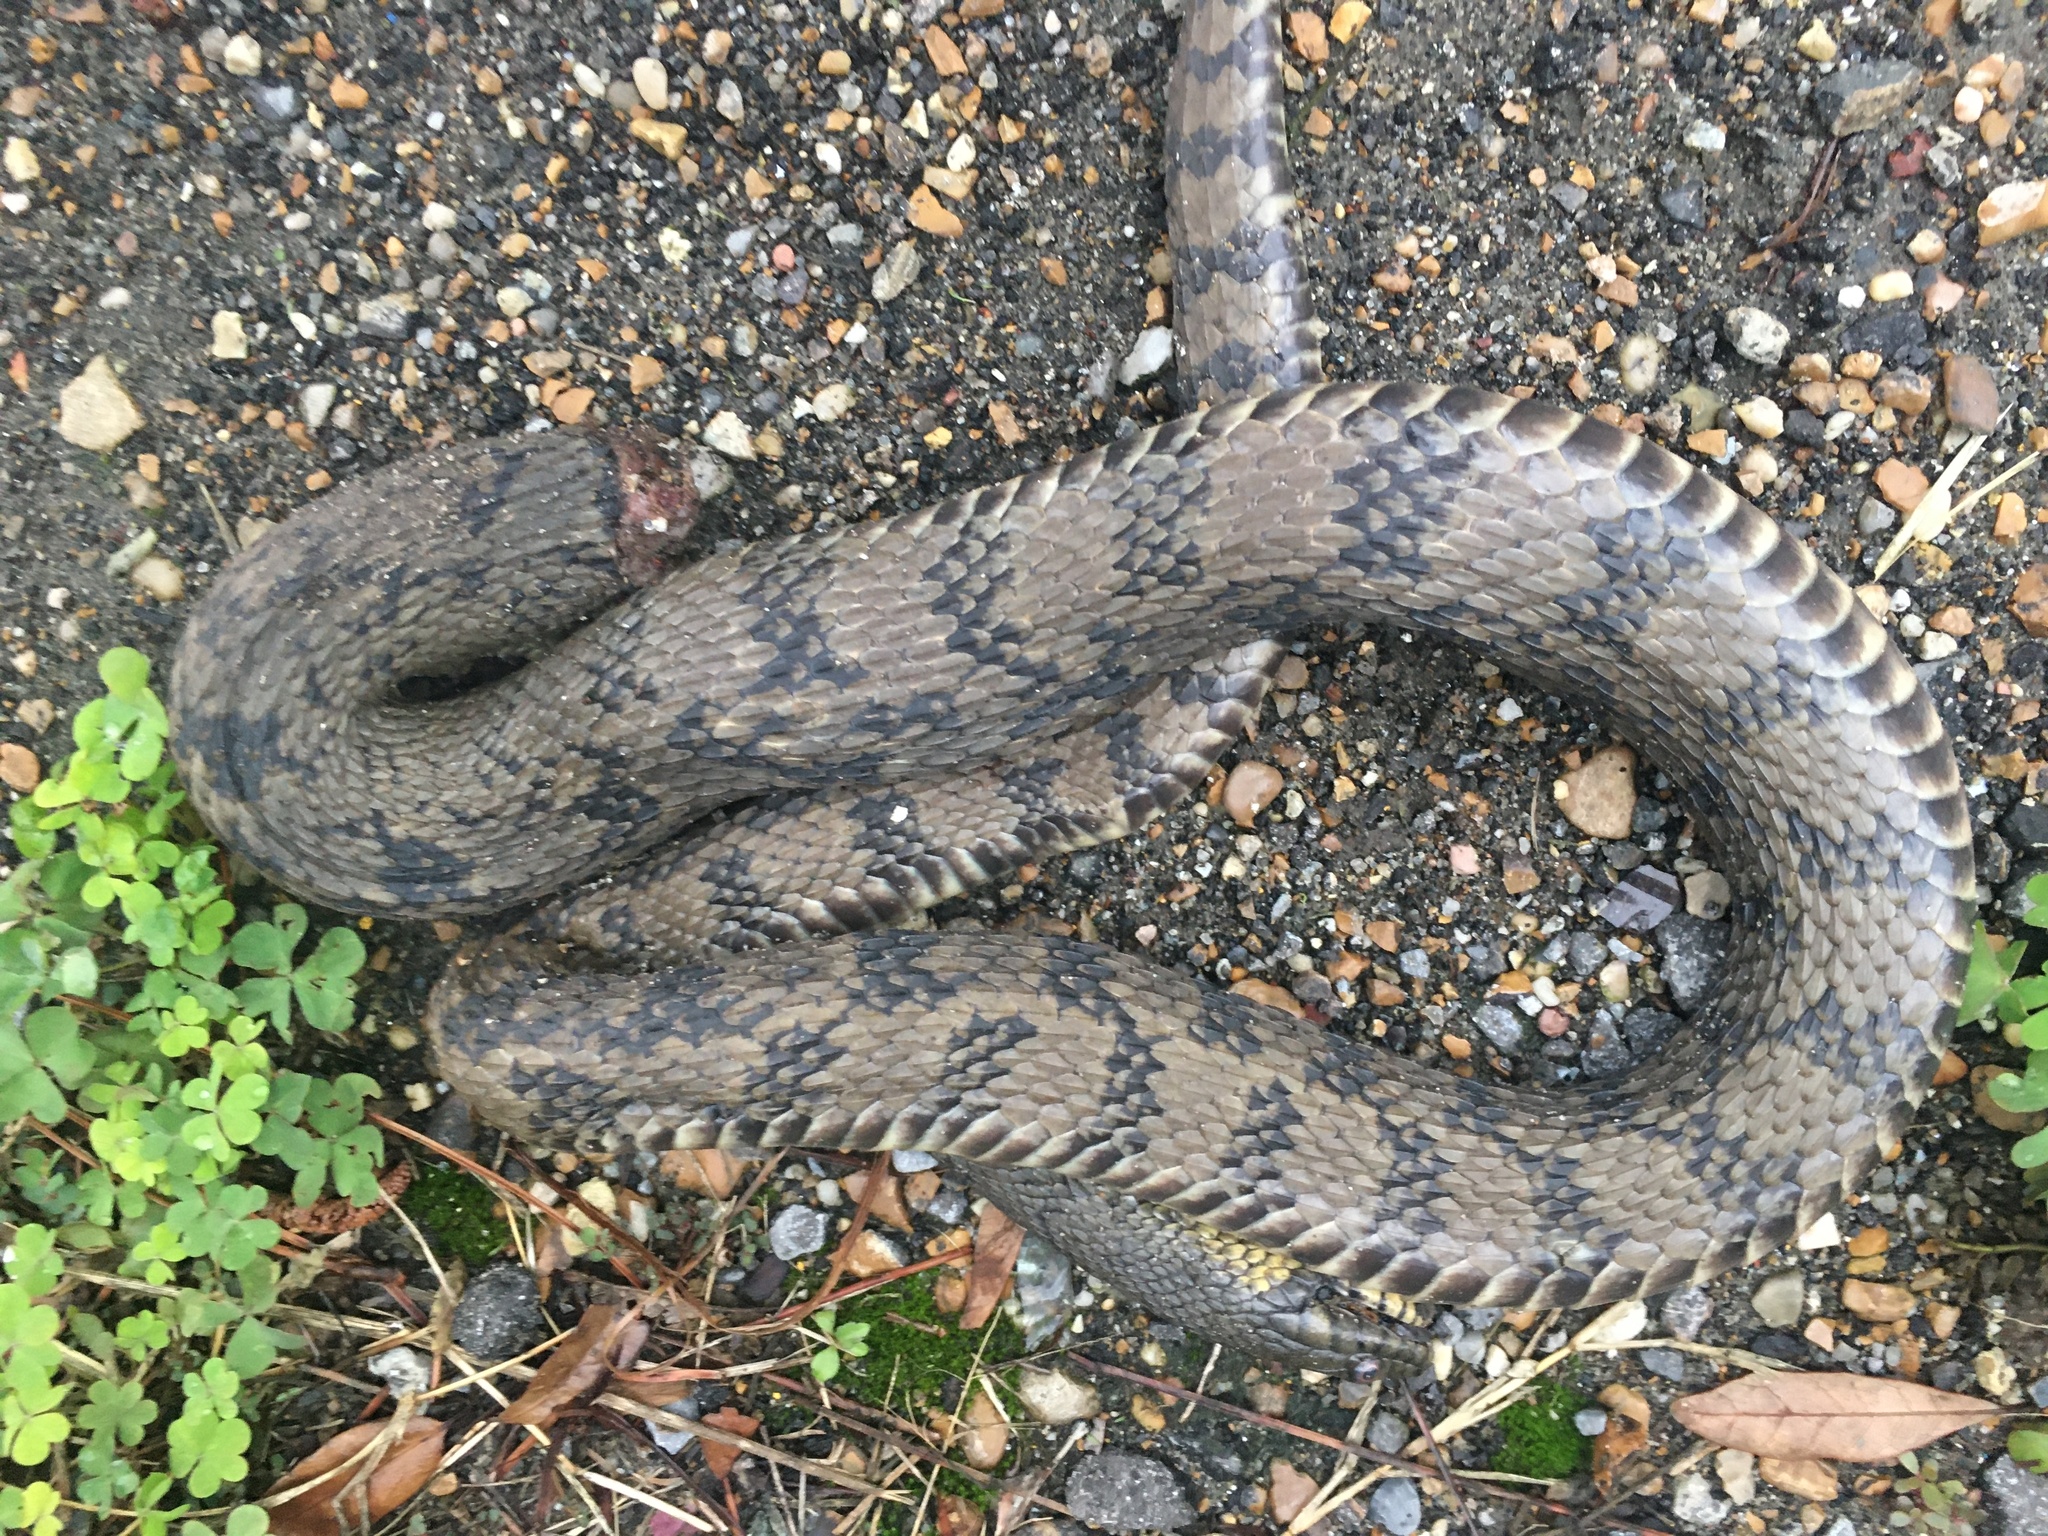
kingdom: Animalia
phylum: Chordata
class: Squamata
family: Colubridae
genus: Nerodia
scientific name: Nerodia rhombifer
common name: Diamondback water snake
